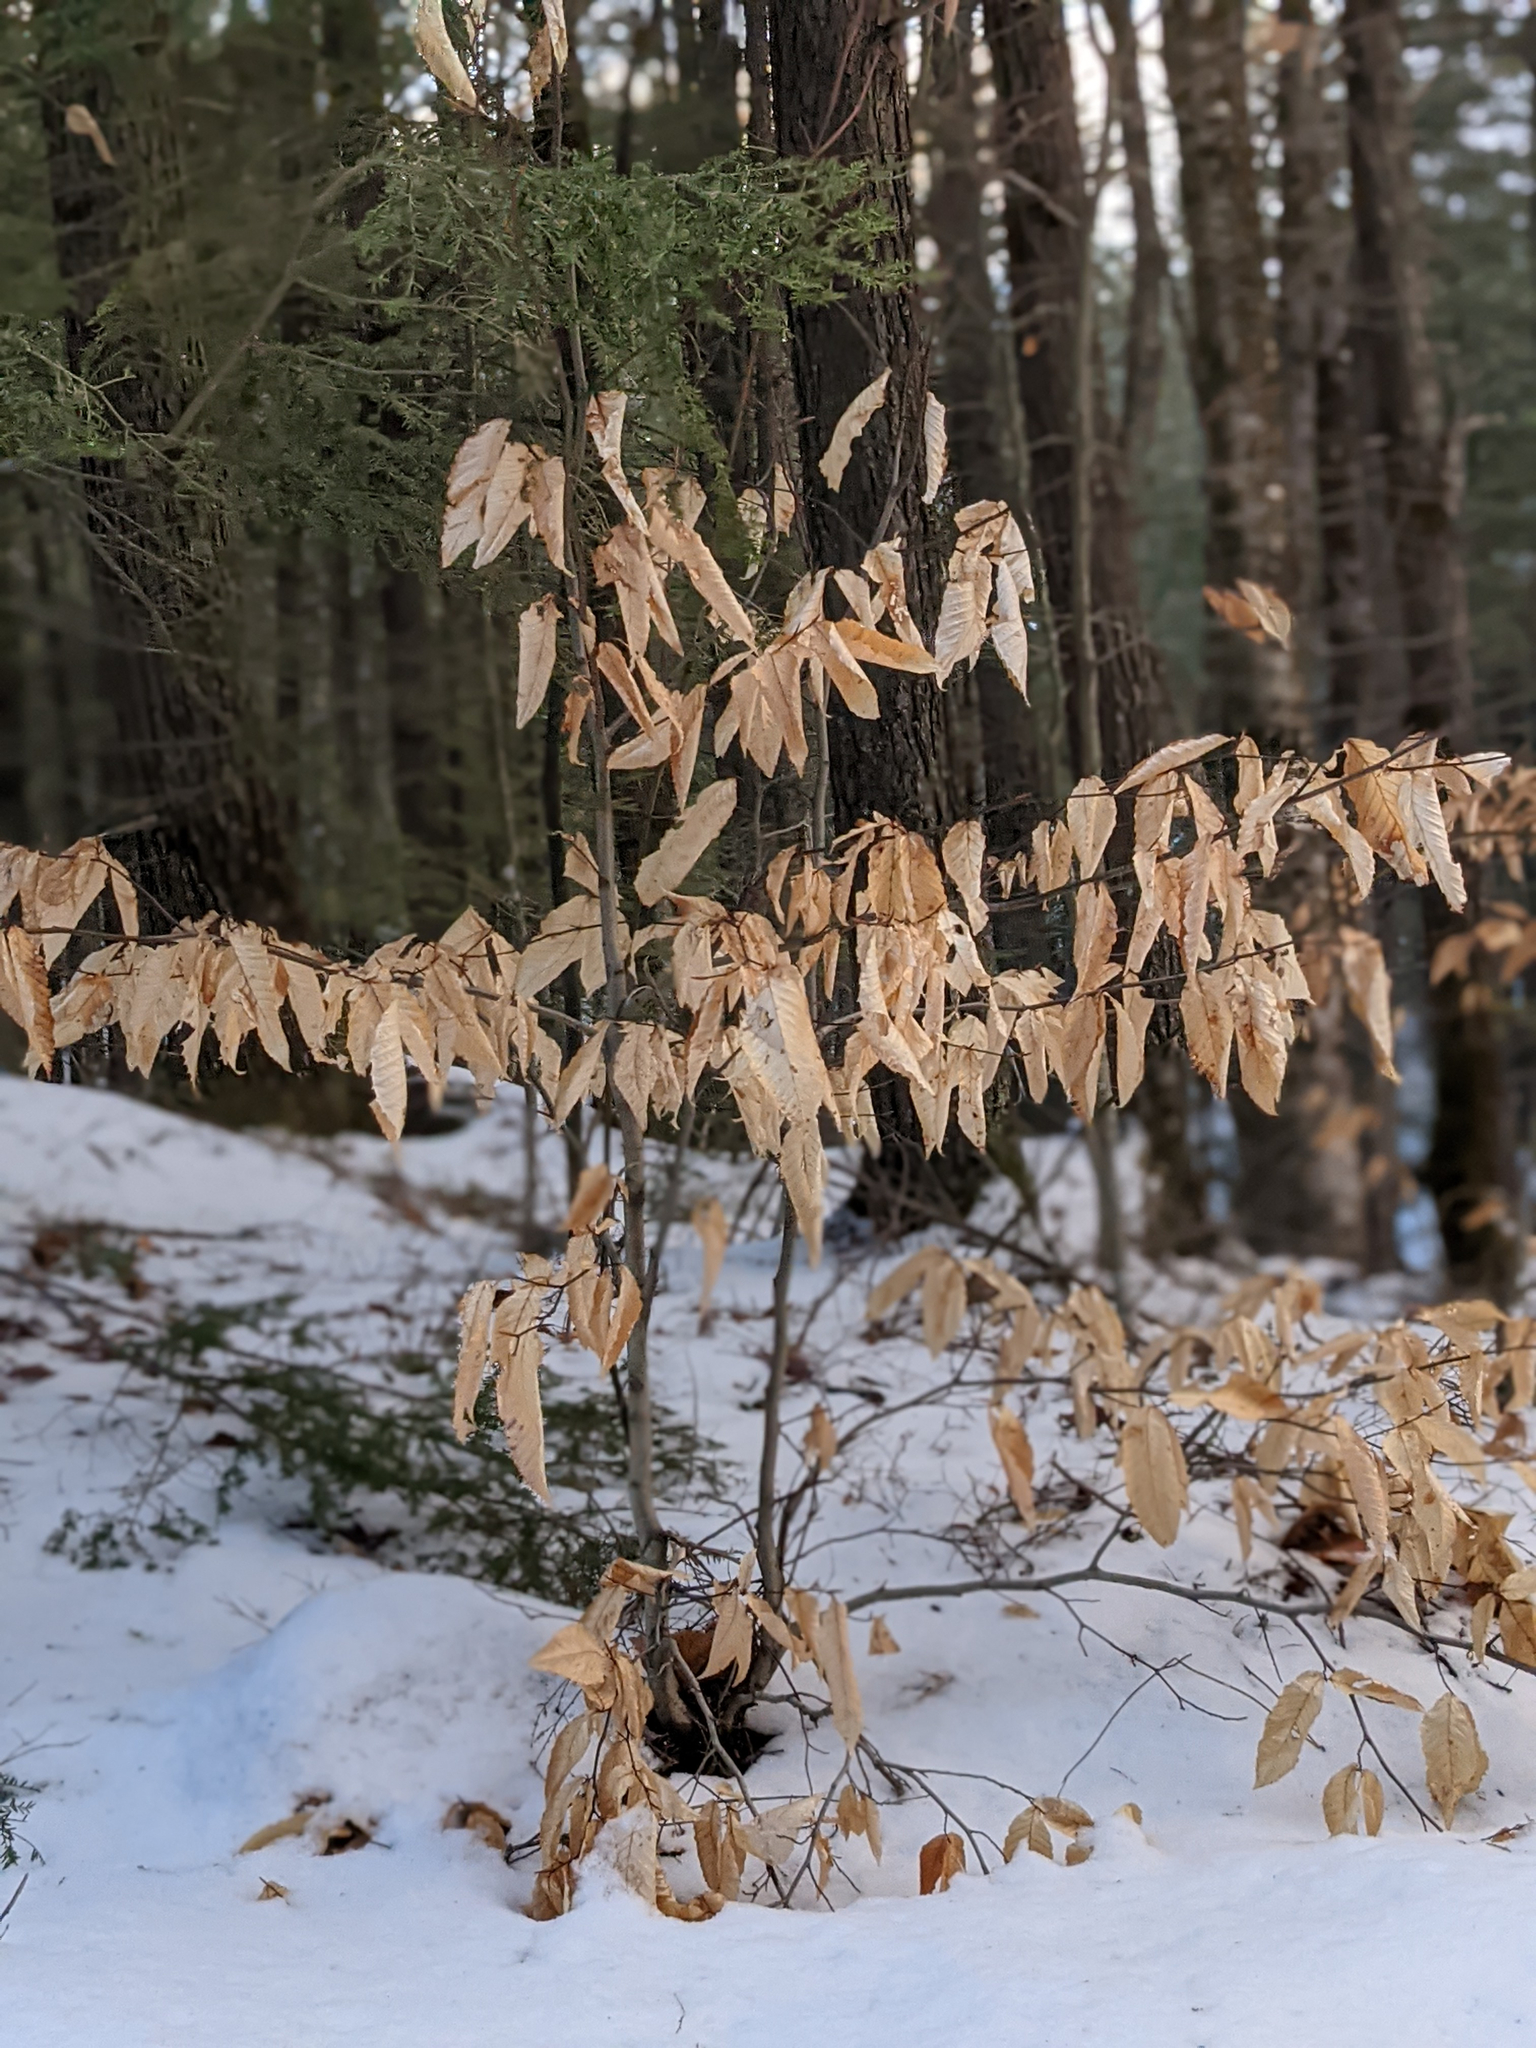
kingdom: Plantae
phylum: Tracheophyta
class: Magnoliopsida
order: Fagales
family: Fagaceae
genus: Fagus
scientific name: Fagus grandifolia
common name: American beech
